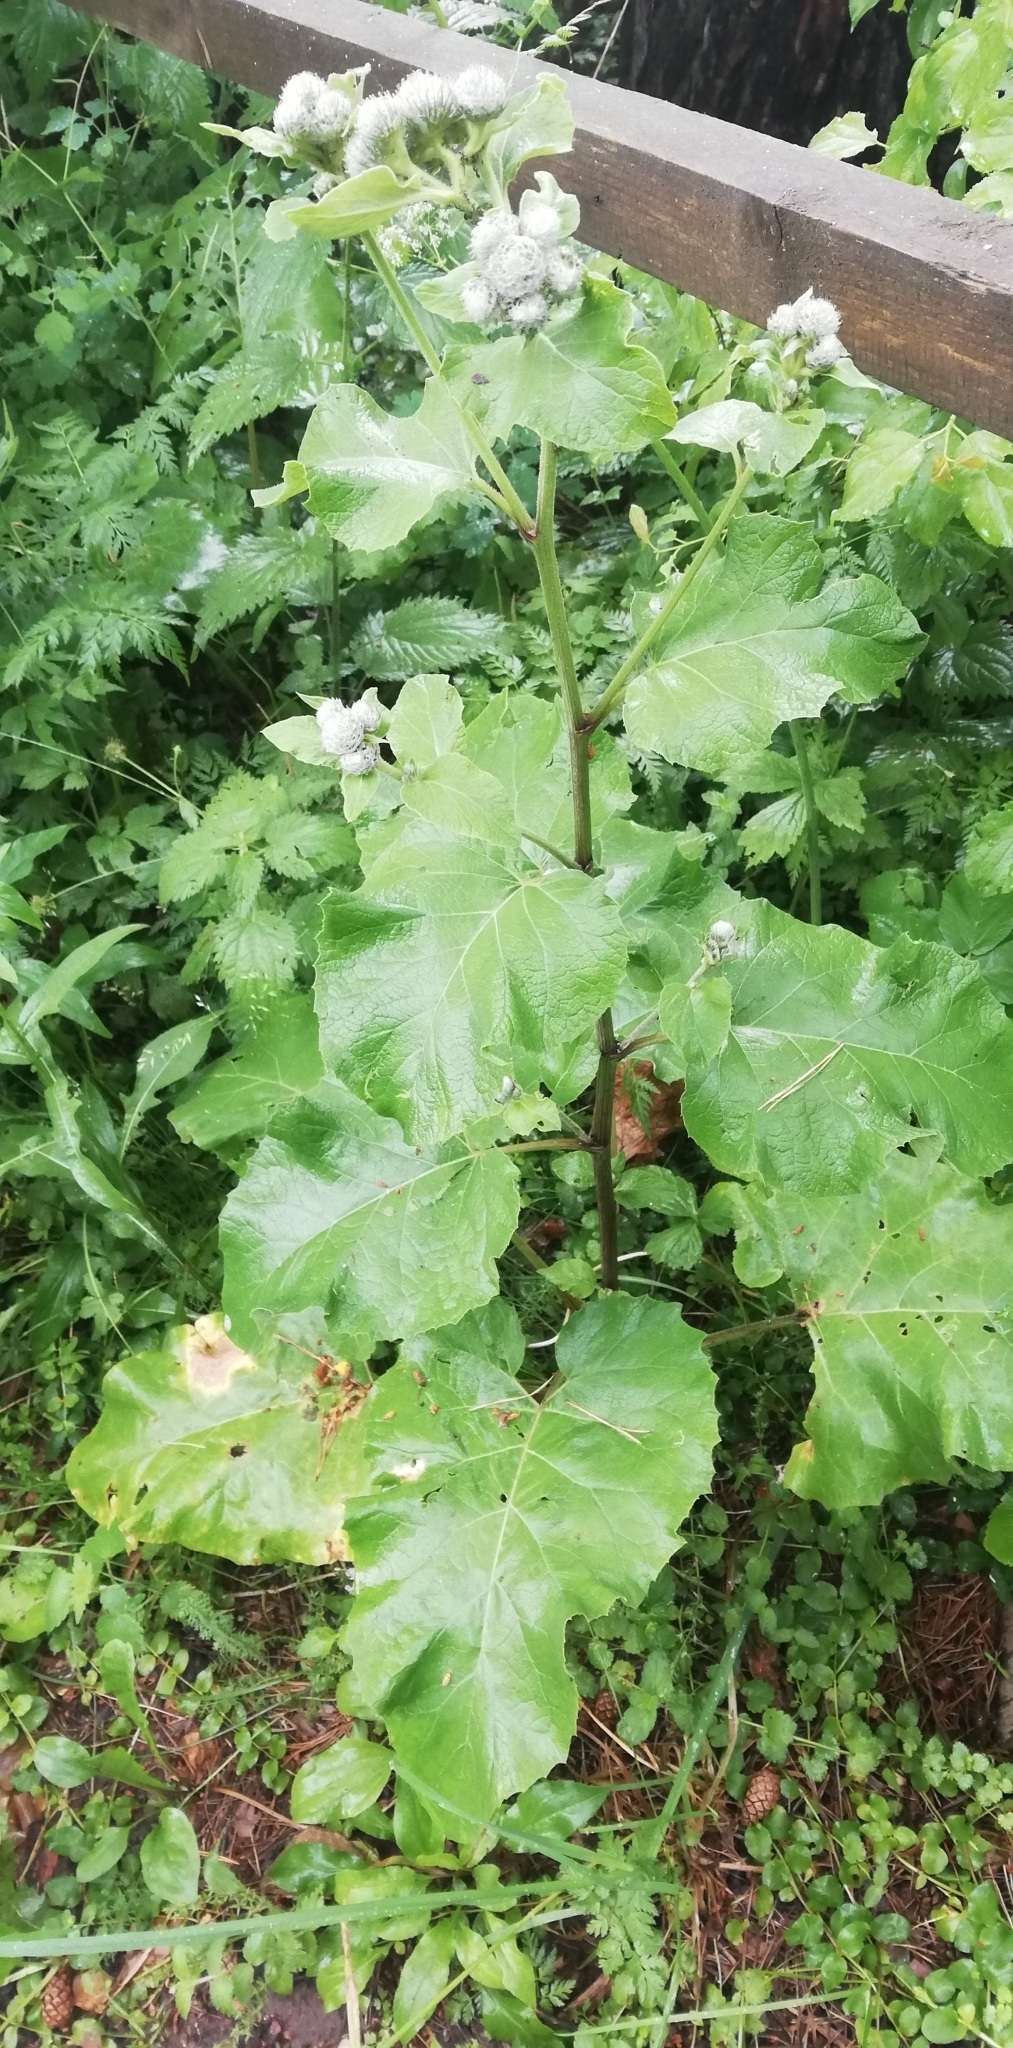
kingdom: Plantae
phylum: Tracheophyta
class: Magnoliopsida
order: Asterales
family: Asteraceae
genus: Arctium
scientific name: Arctium tomentosum
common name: Woolly burdock
